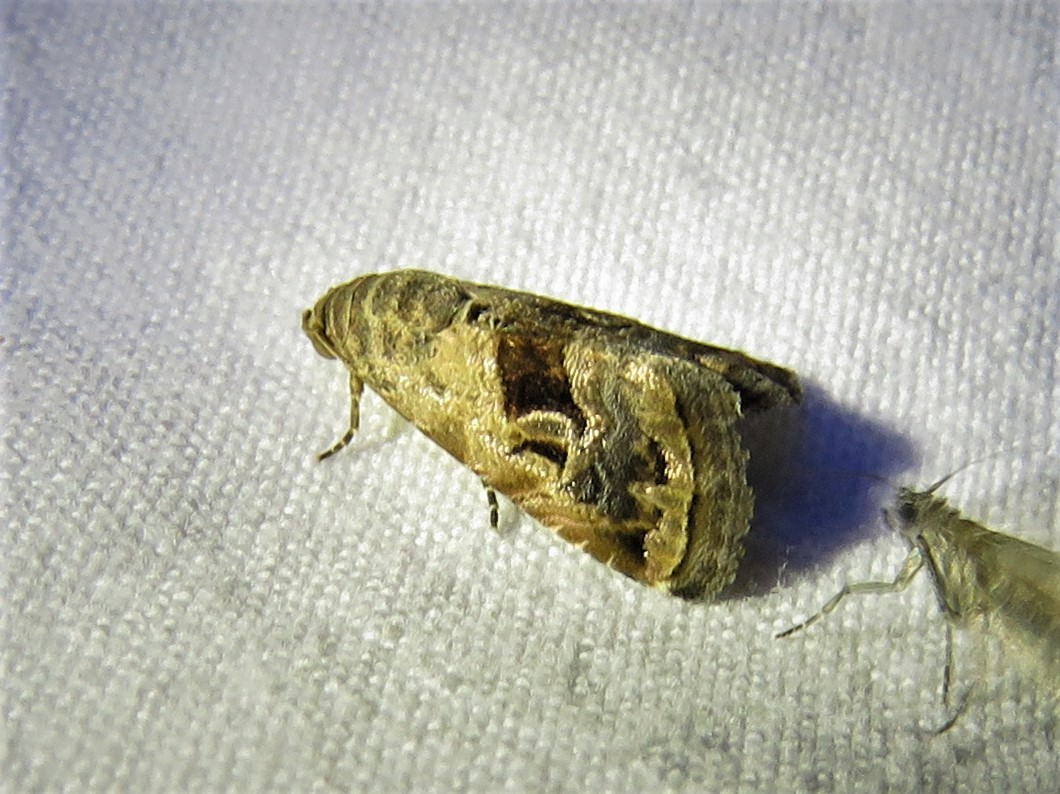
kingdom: Animalia
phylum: Arthropoda
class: Insecta
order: Lepidoptera
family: Noctuidae
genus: Tripudia
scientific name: Tripudia quadrifera
